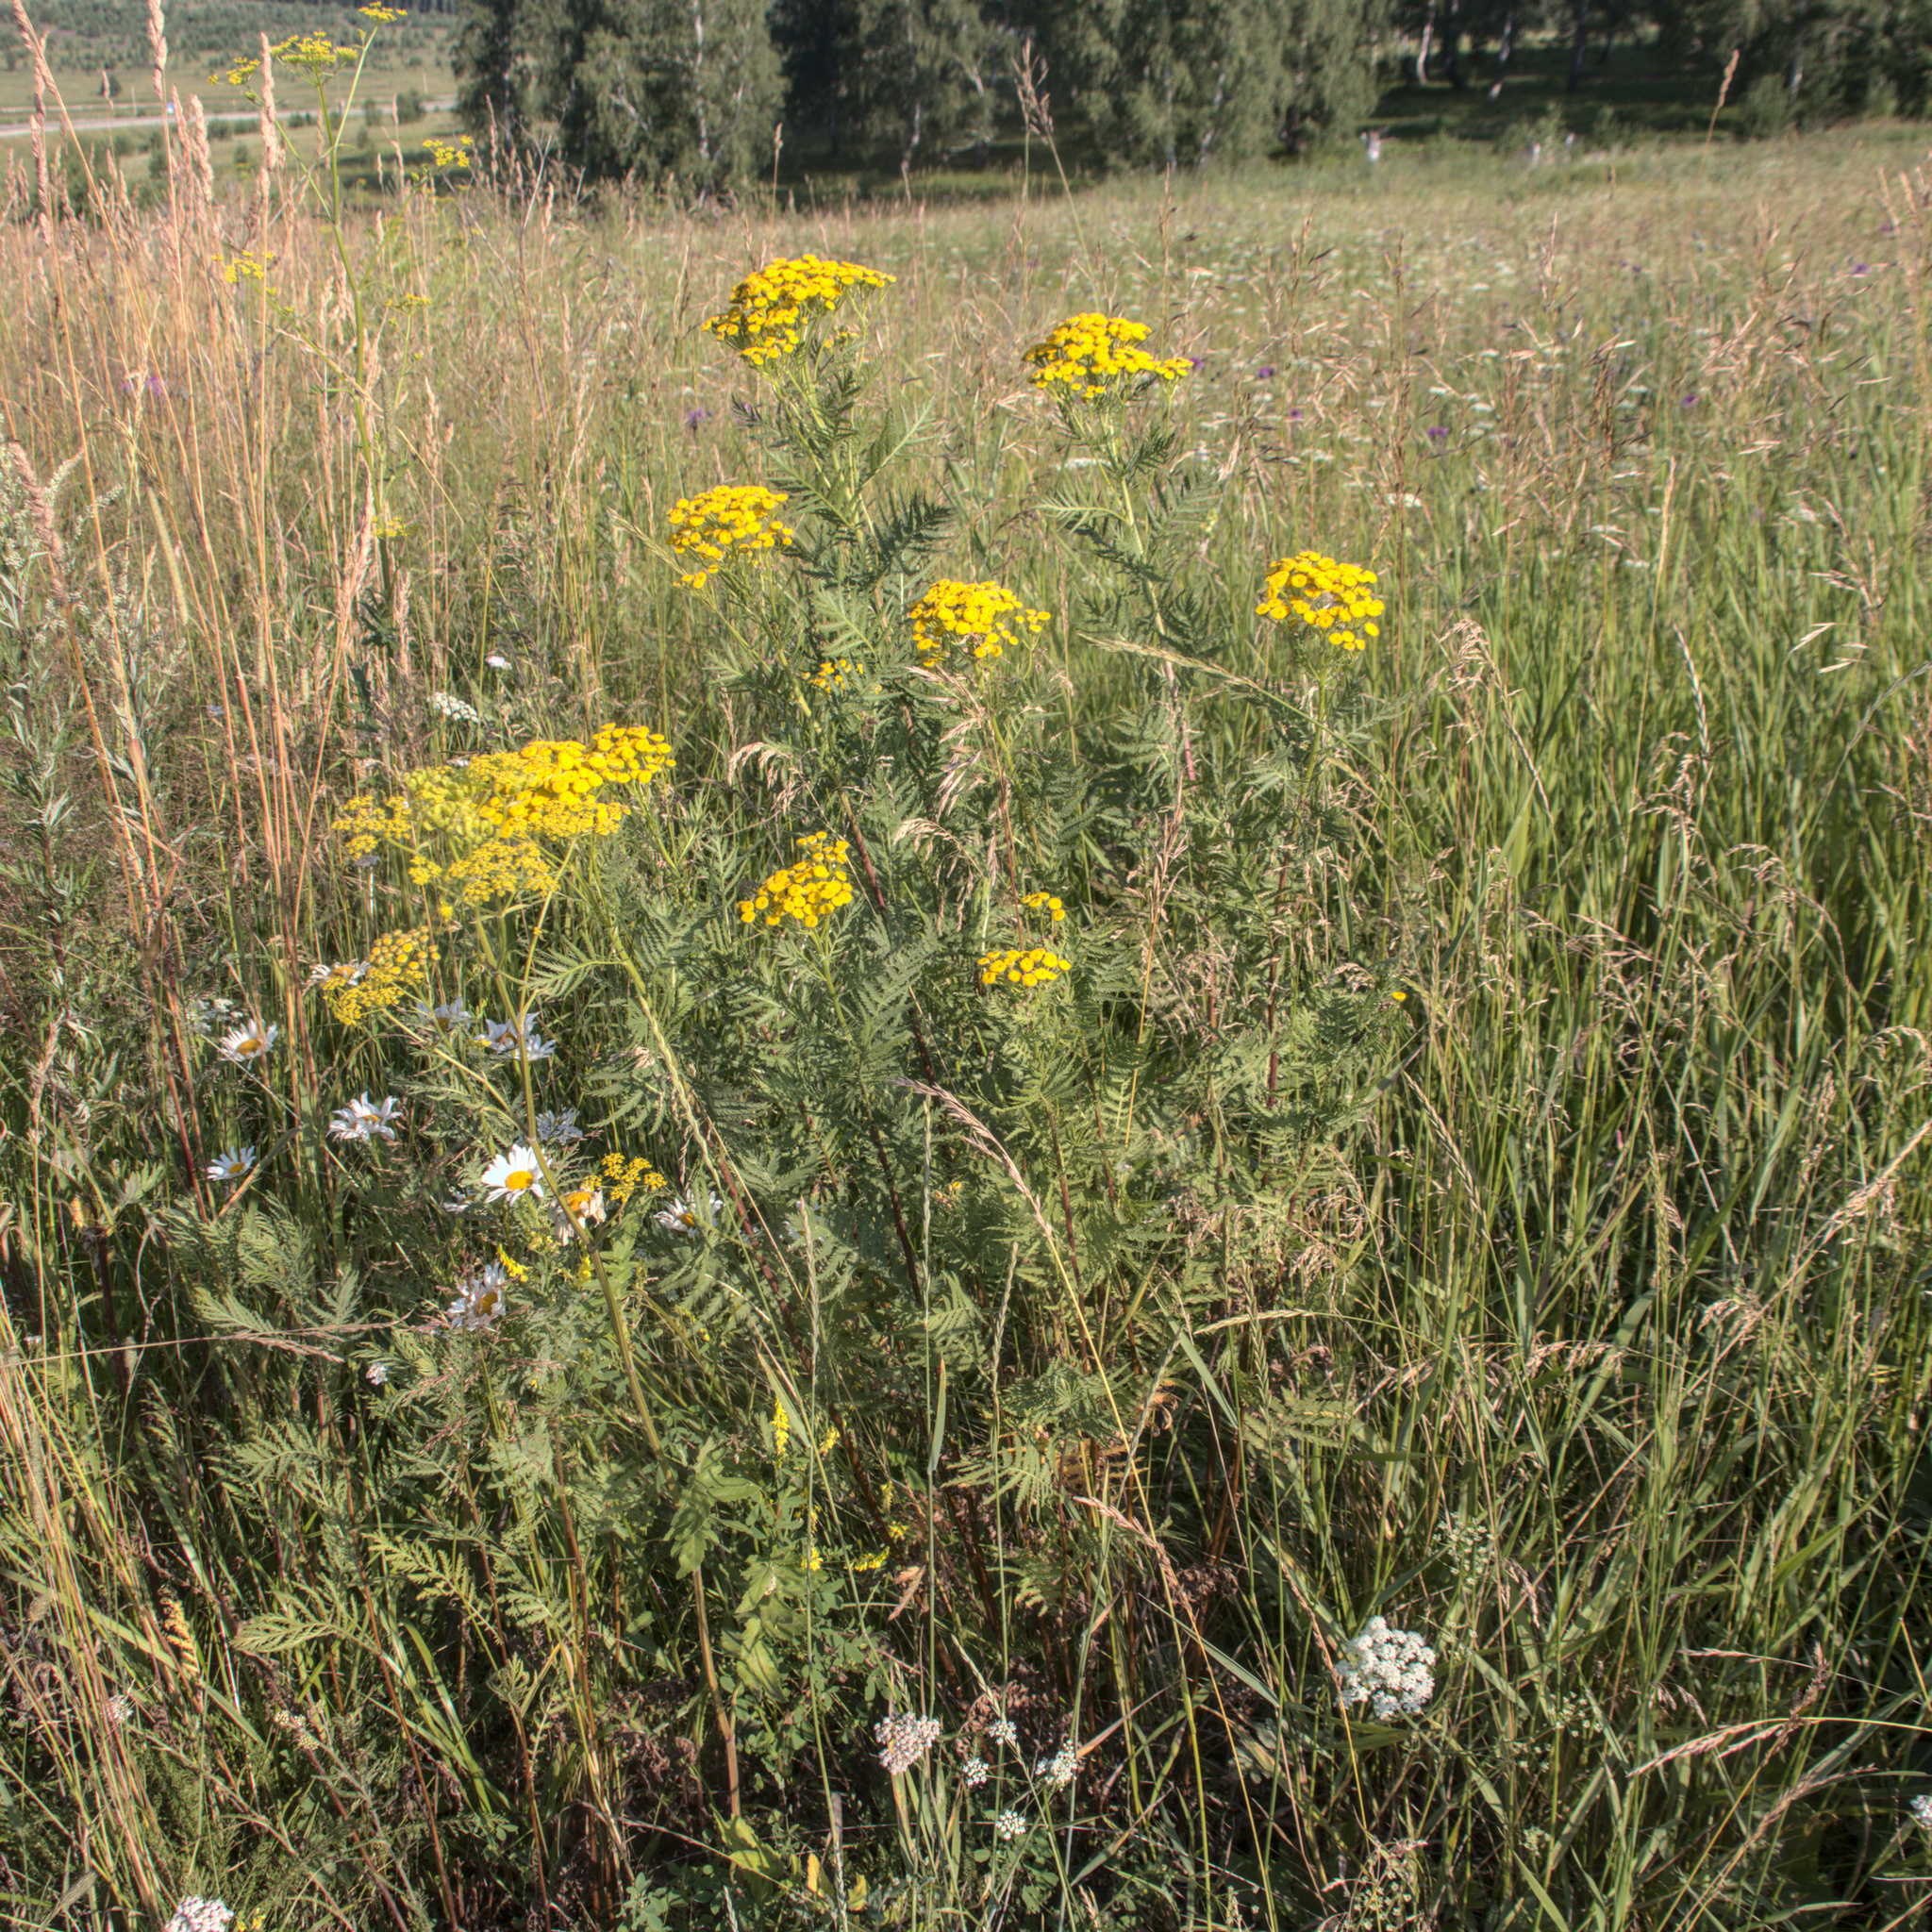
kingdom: Plantae
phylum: Tracheophyta
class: Magnoliopsida
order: Asterales
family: Asteraceae
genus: Tanacetum
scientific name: Tanacetum vulgare
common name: Common tansy
